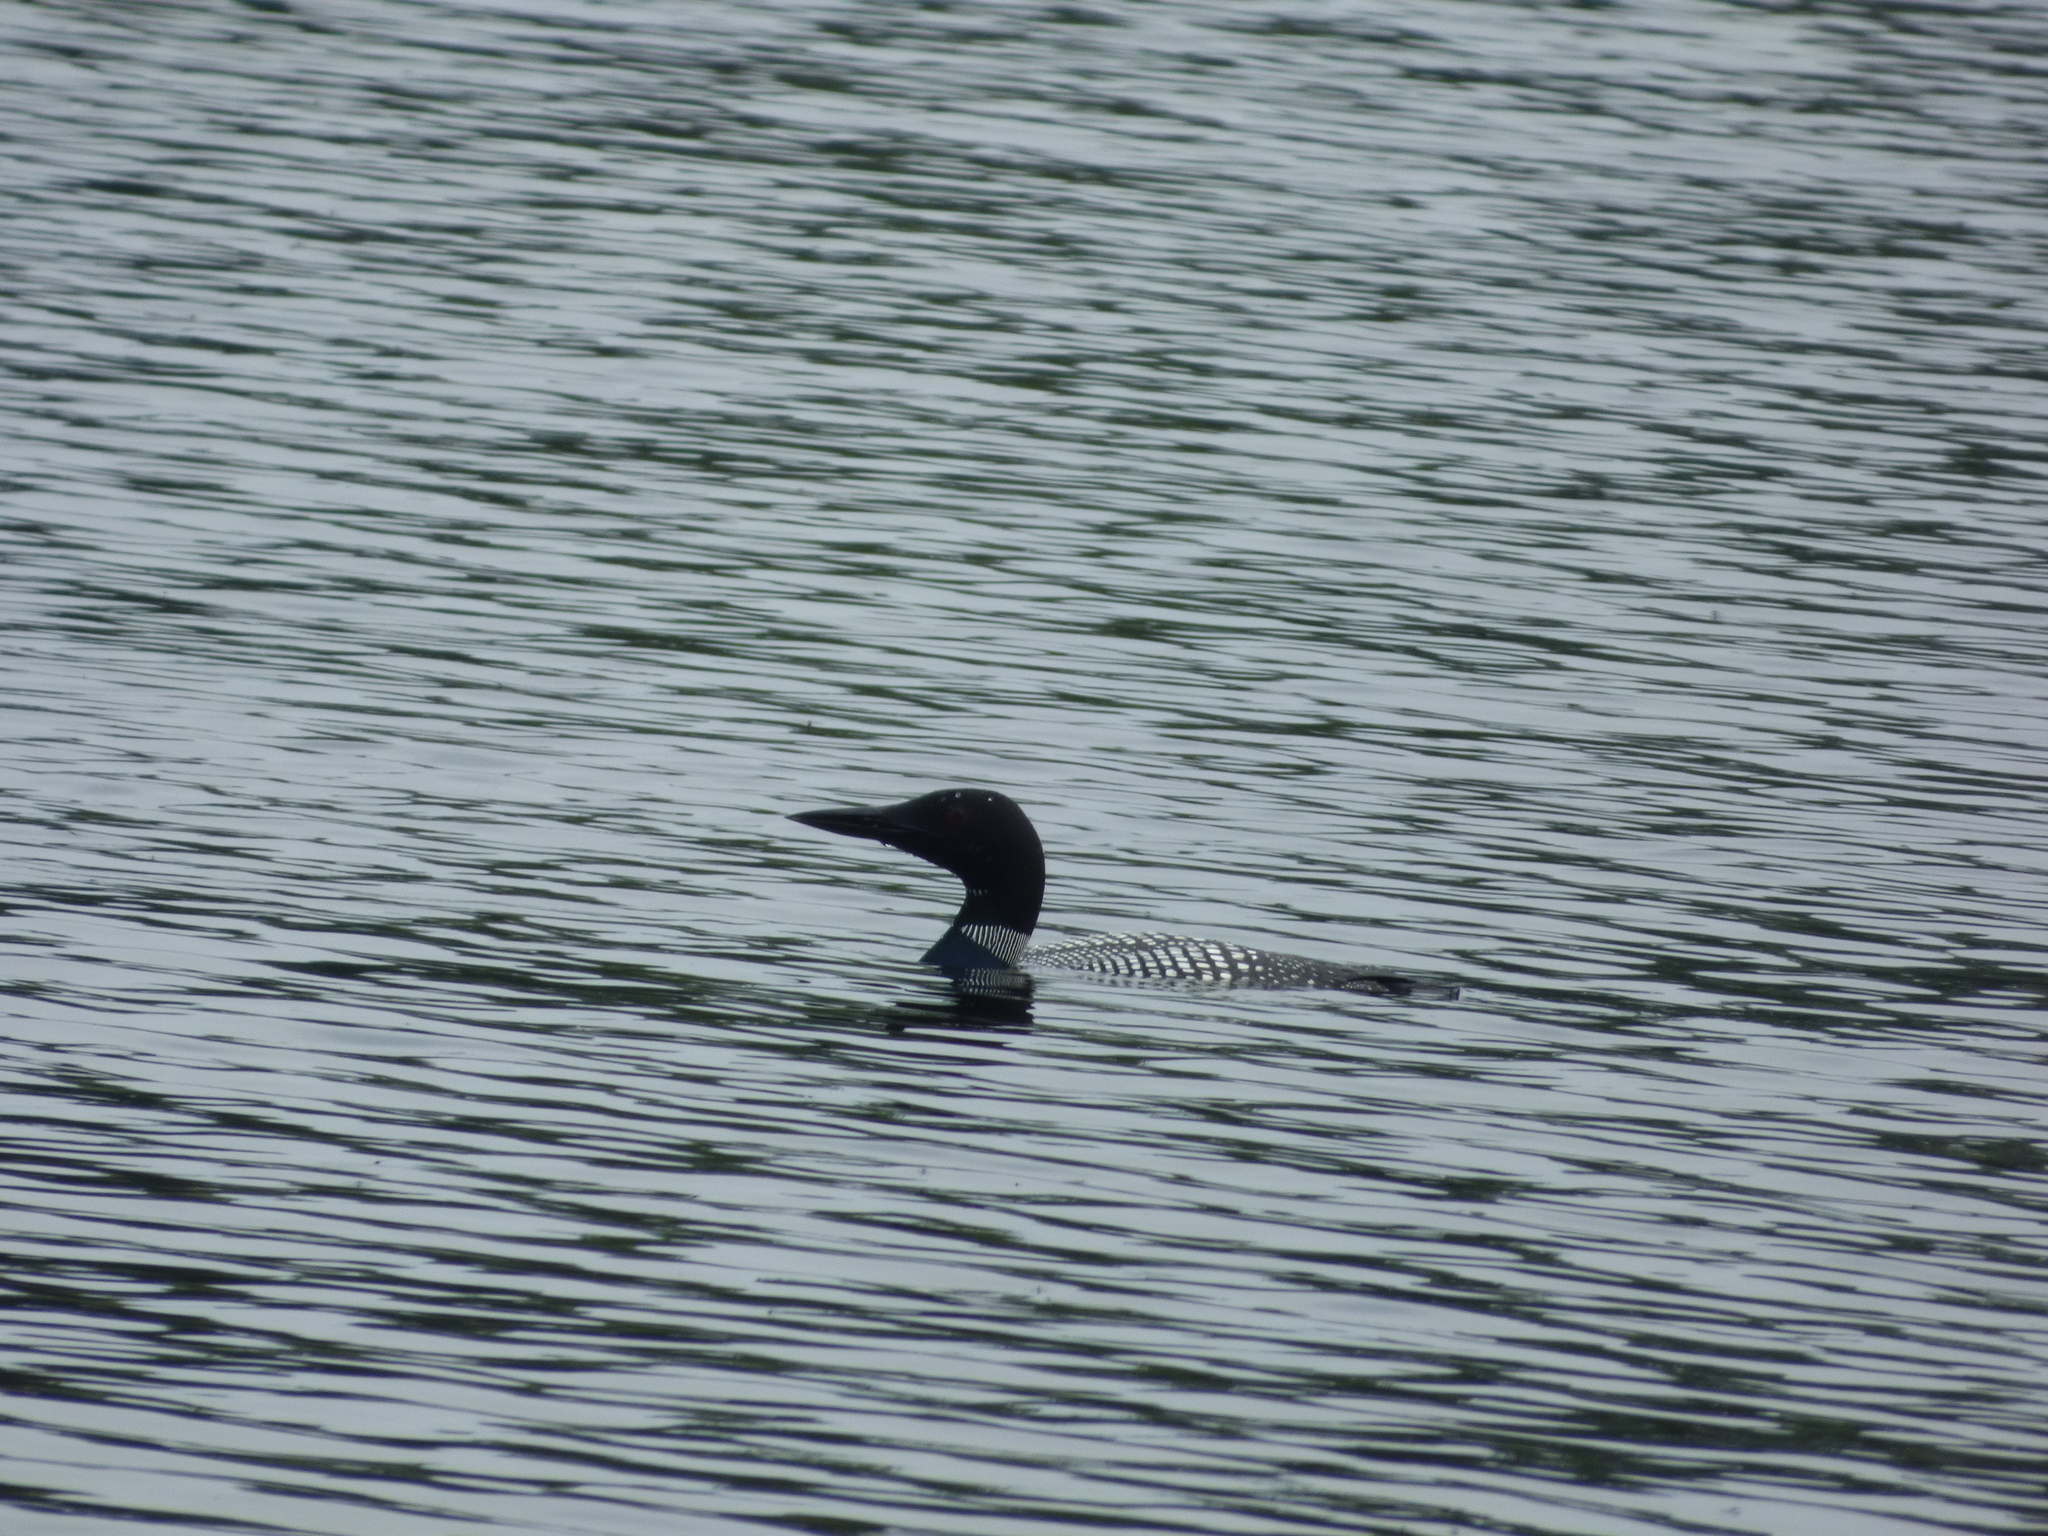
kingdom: Animalia
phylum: Chordata
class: Aves
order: Gaviiformes
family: Gaviidae
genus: Gavia
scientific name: Gavia immer
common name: Common loon
